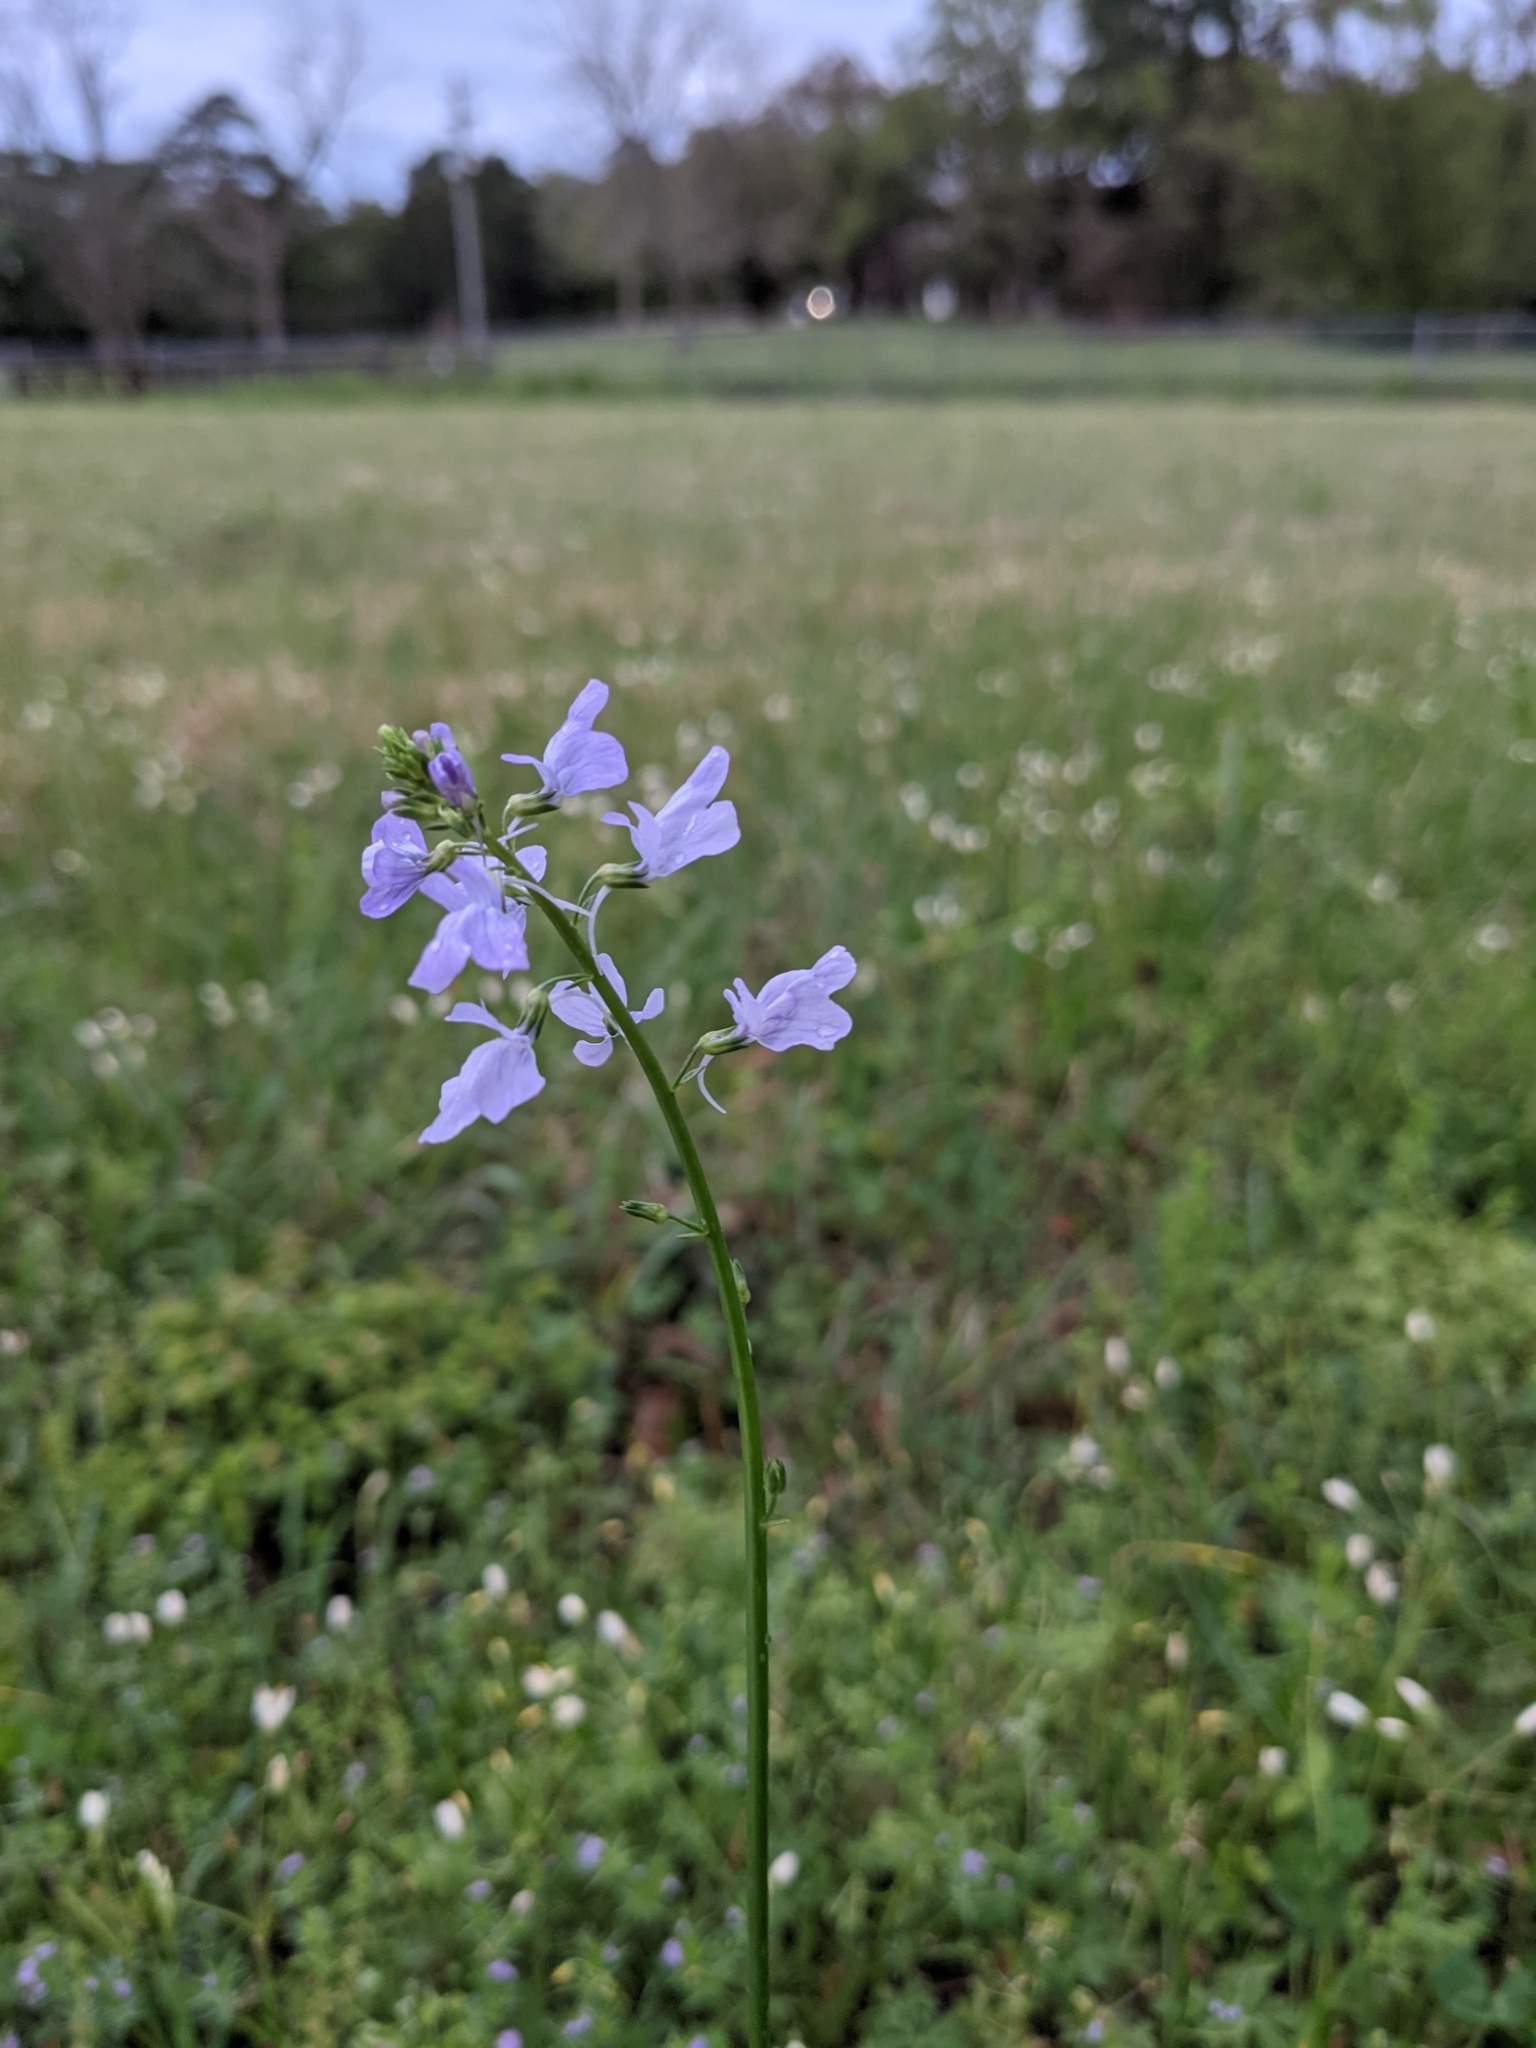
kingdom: Plantae
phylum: Tracheophyta
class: Magnoliopsida
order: Lamiales
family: Plantaginaceae
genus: Nuttallanthus
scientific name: Nuttallanthus texanus
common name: Texas toadflax
